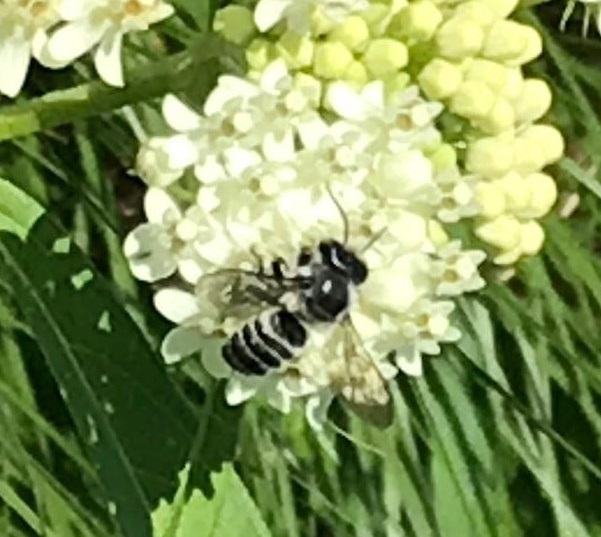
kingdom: Animalia
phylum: Arthropoda
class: Insecta
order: Hymenoptera
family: Megachilidae
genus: Megachile
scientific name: Megachile
